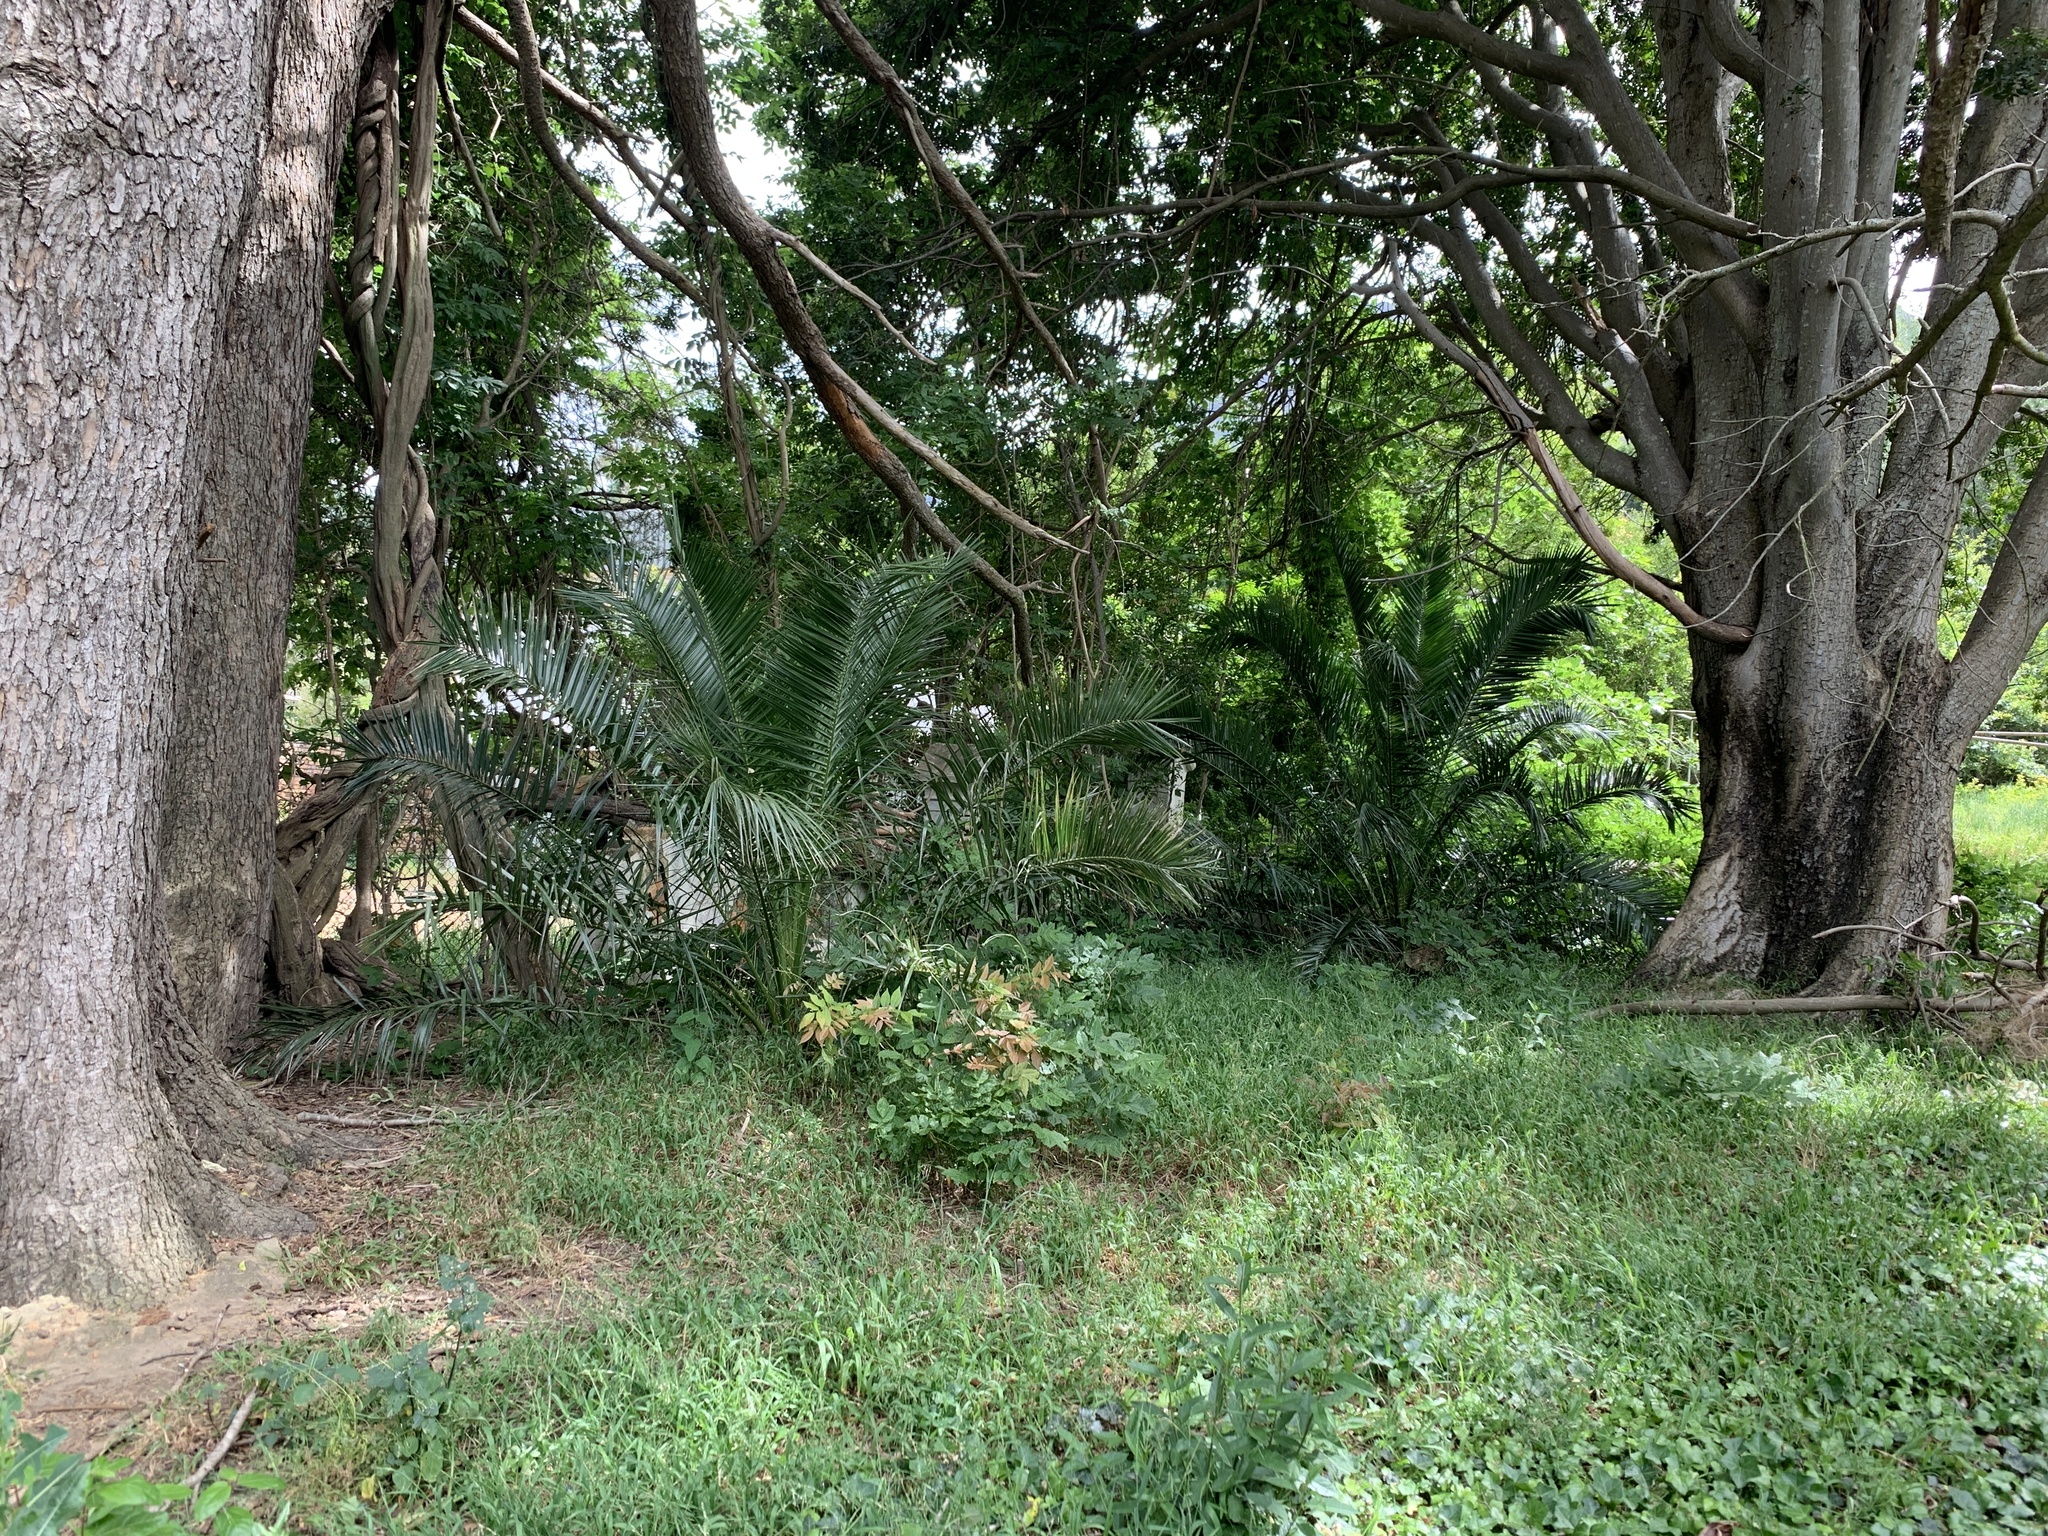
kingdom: Plantae
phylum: Tracheophyta
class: Liliopsida
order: Arecales
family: Arecaceae
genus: Phoenix
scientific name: Phoenix canariensis
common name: Canary island date palm
